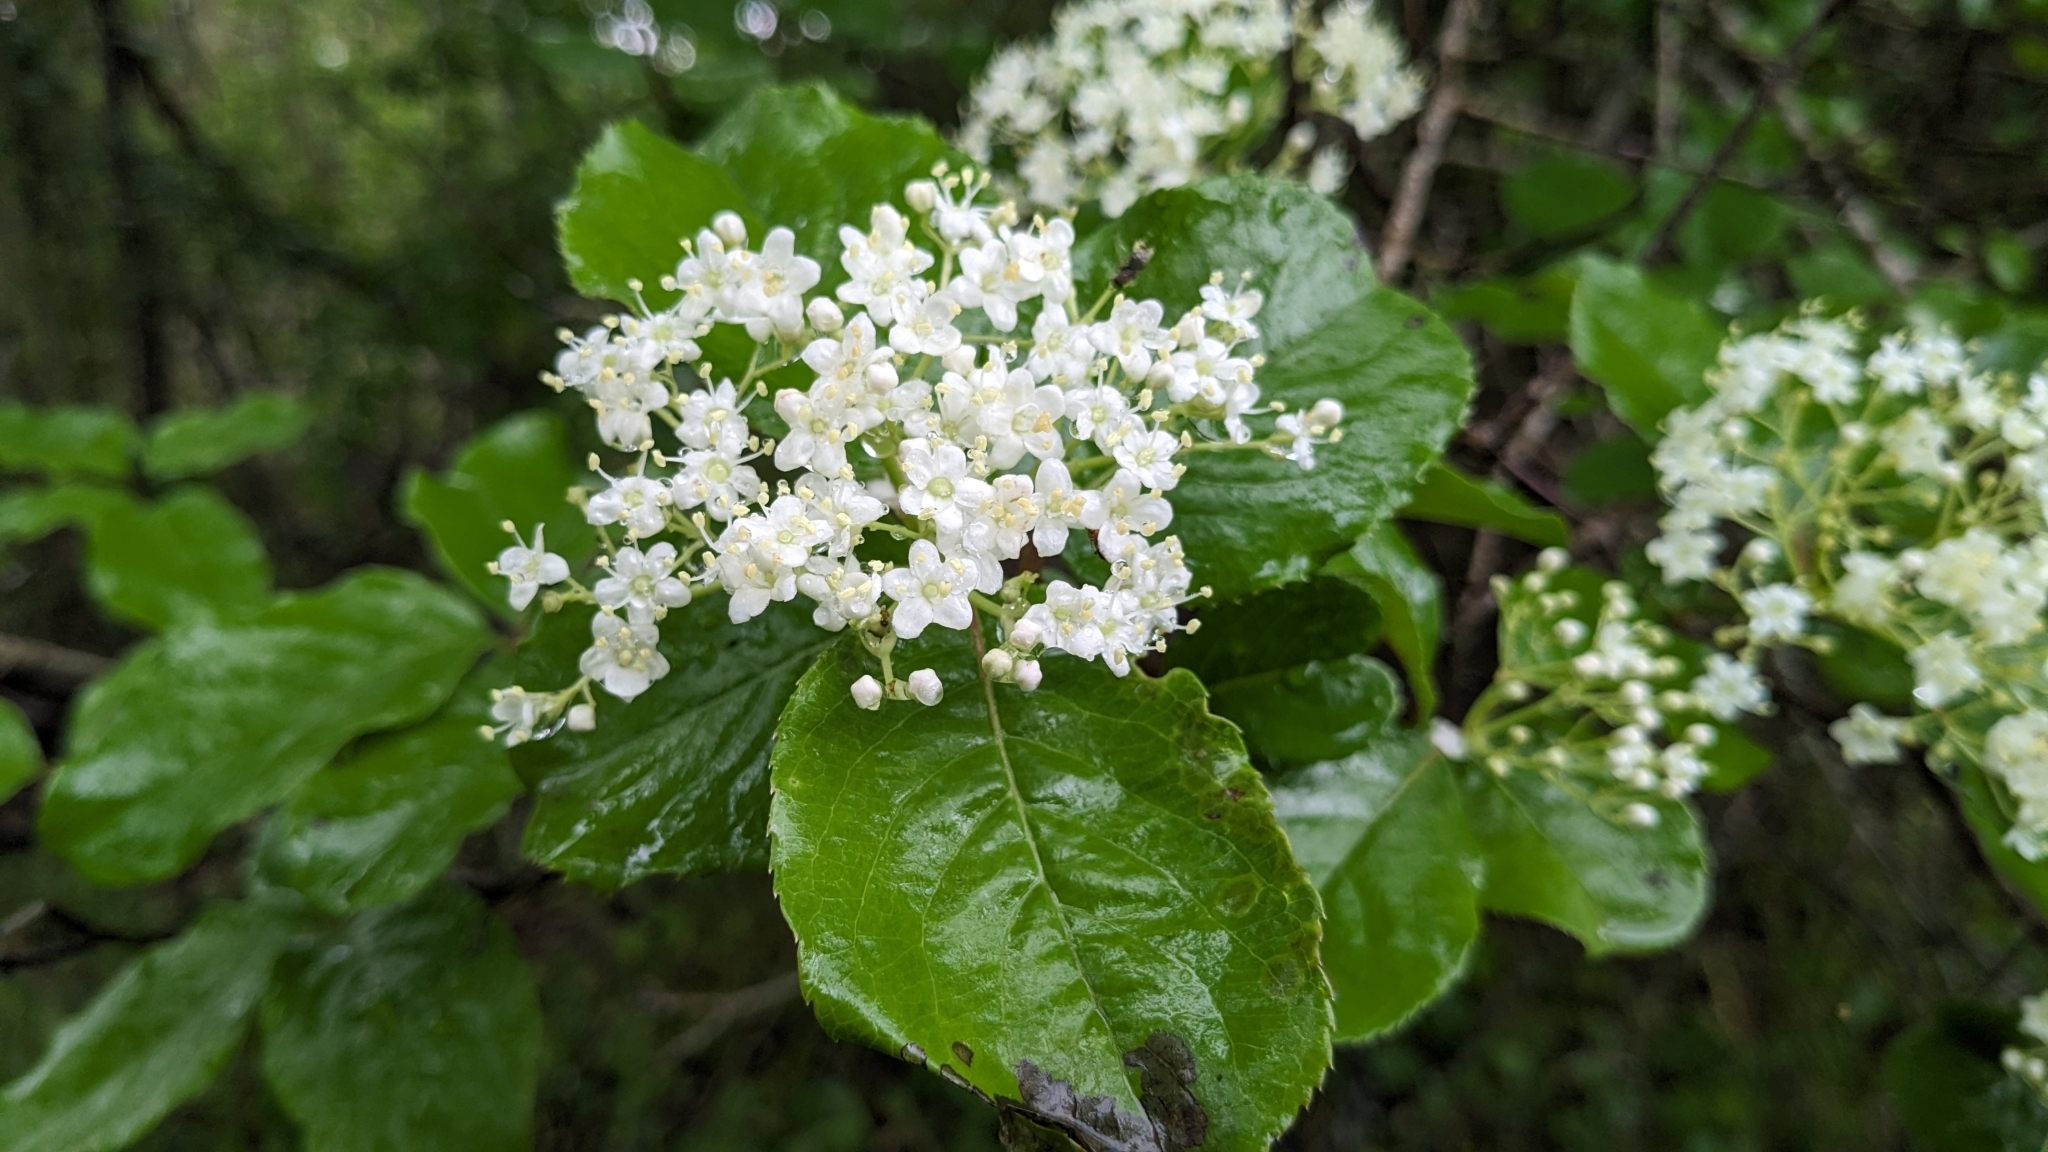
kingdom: Plantae
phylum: Tracheophyta
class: Magnoliopsida
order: Dipsacales
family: Viburnaceae
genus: Viburnum
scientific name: Viburnum rufidulum
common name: Blue haw
